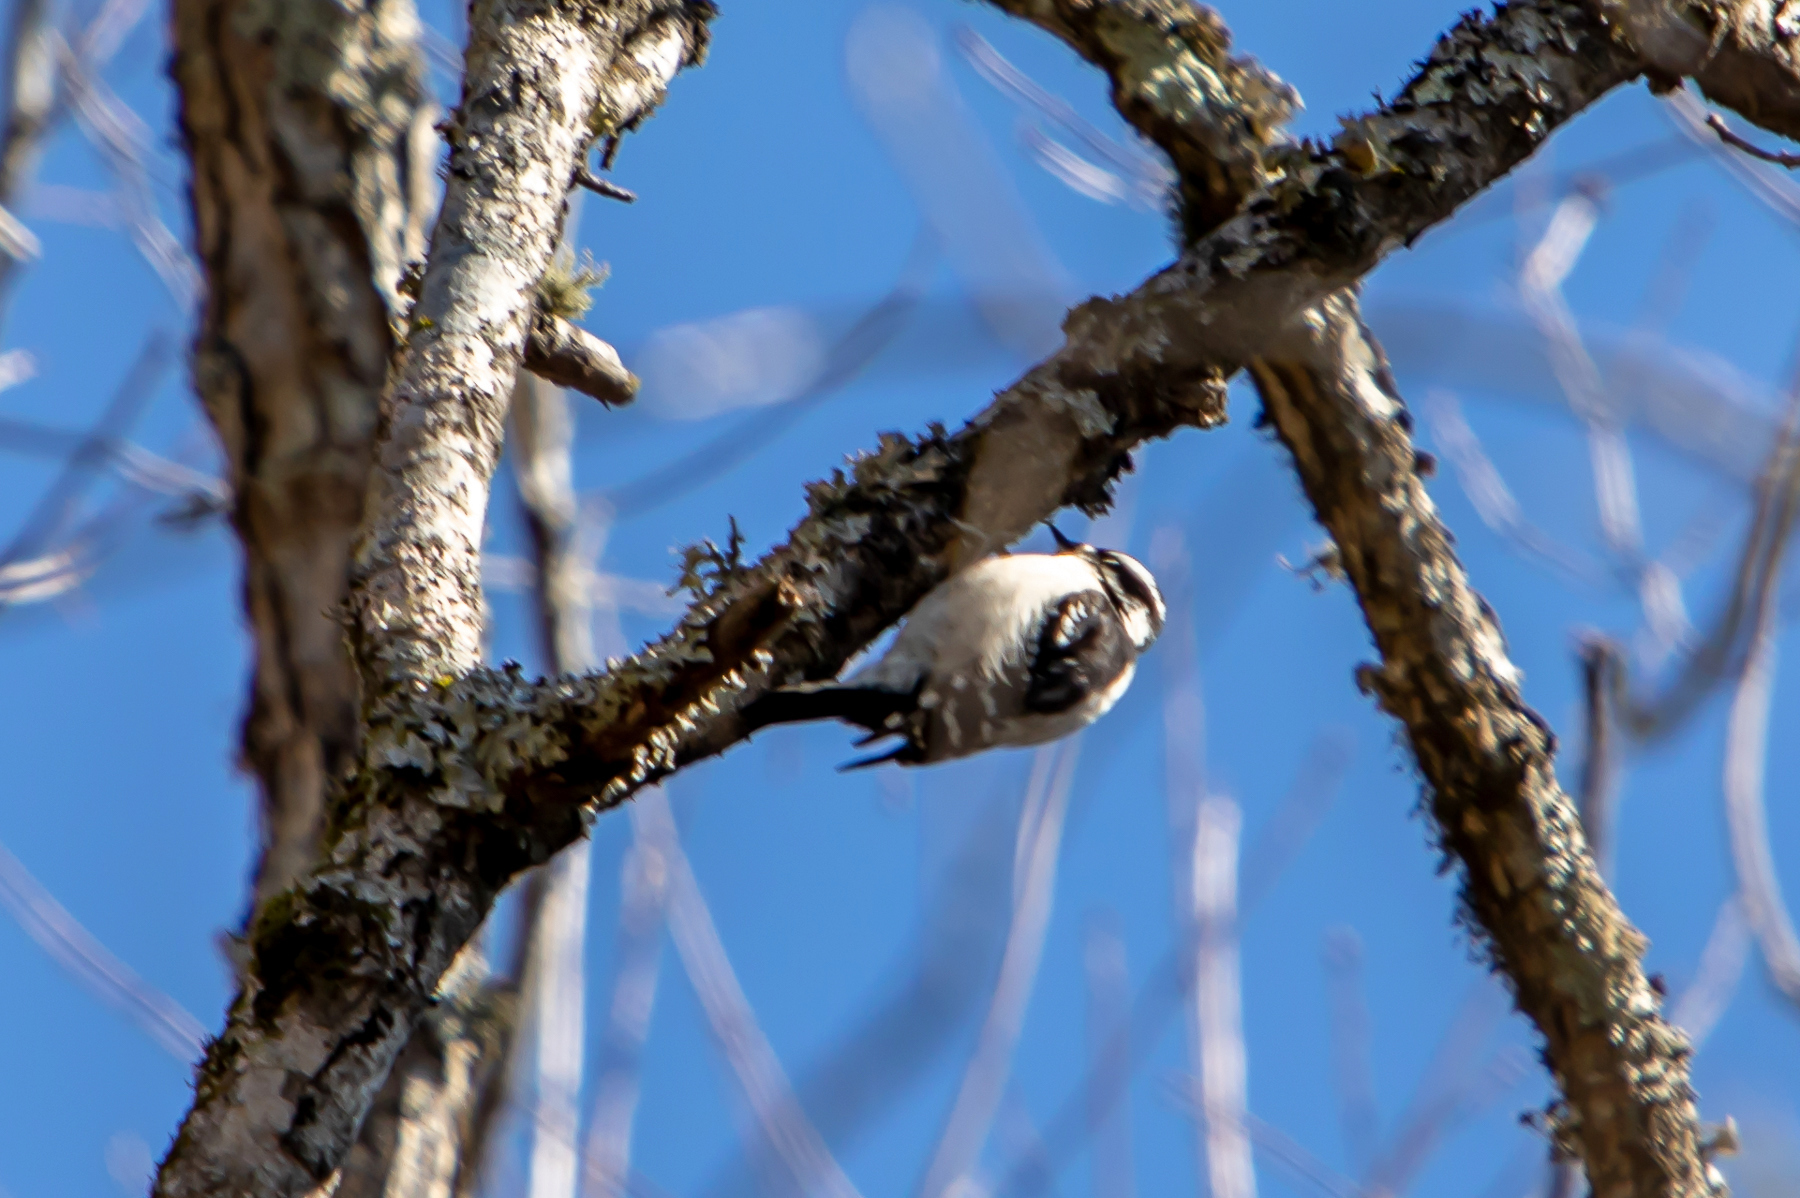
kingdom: Animalia
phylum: Chordata
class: Aves
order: Piciformes
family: Picidae
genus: Dryobates
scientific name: Dryobates pubescens
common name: Downy woodpecker
